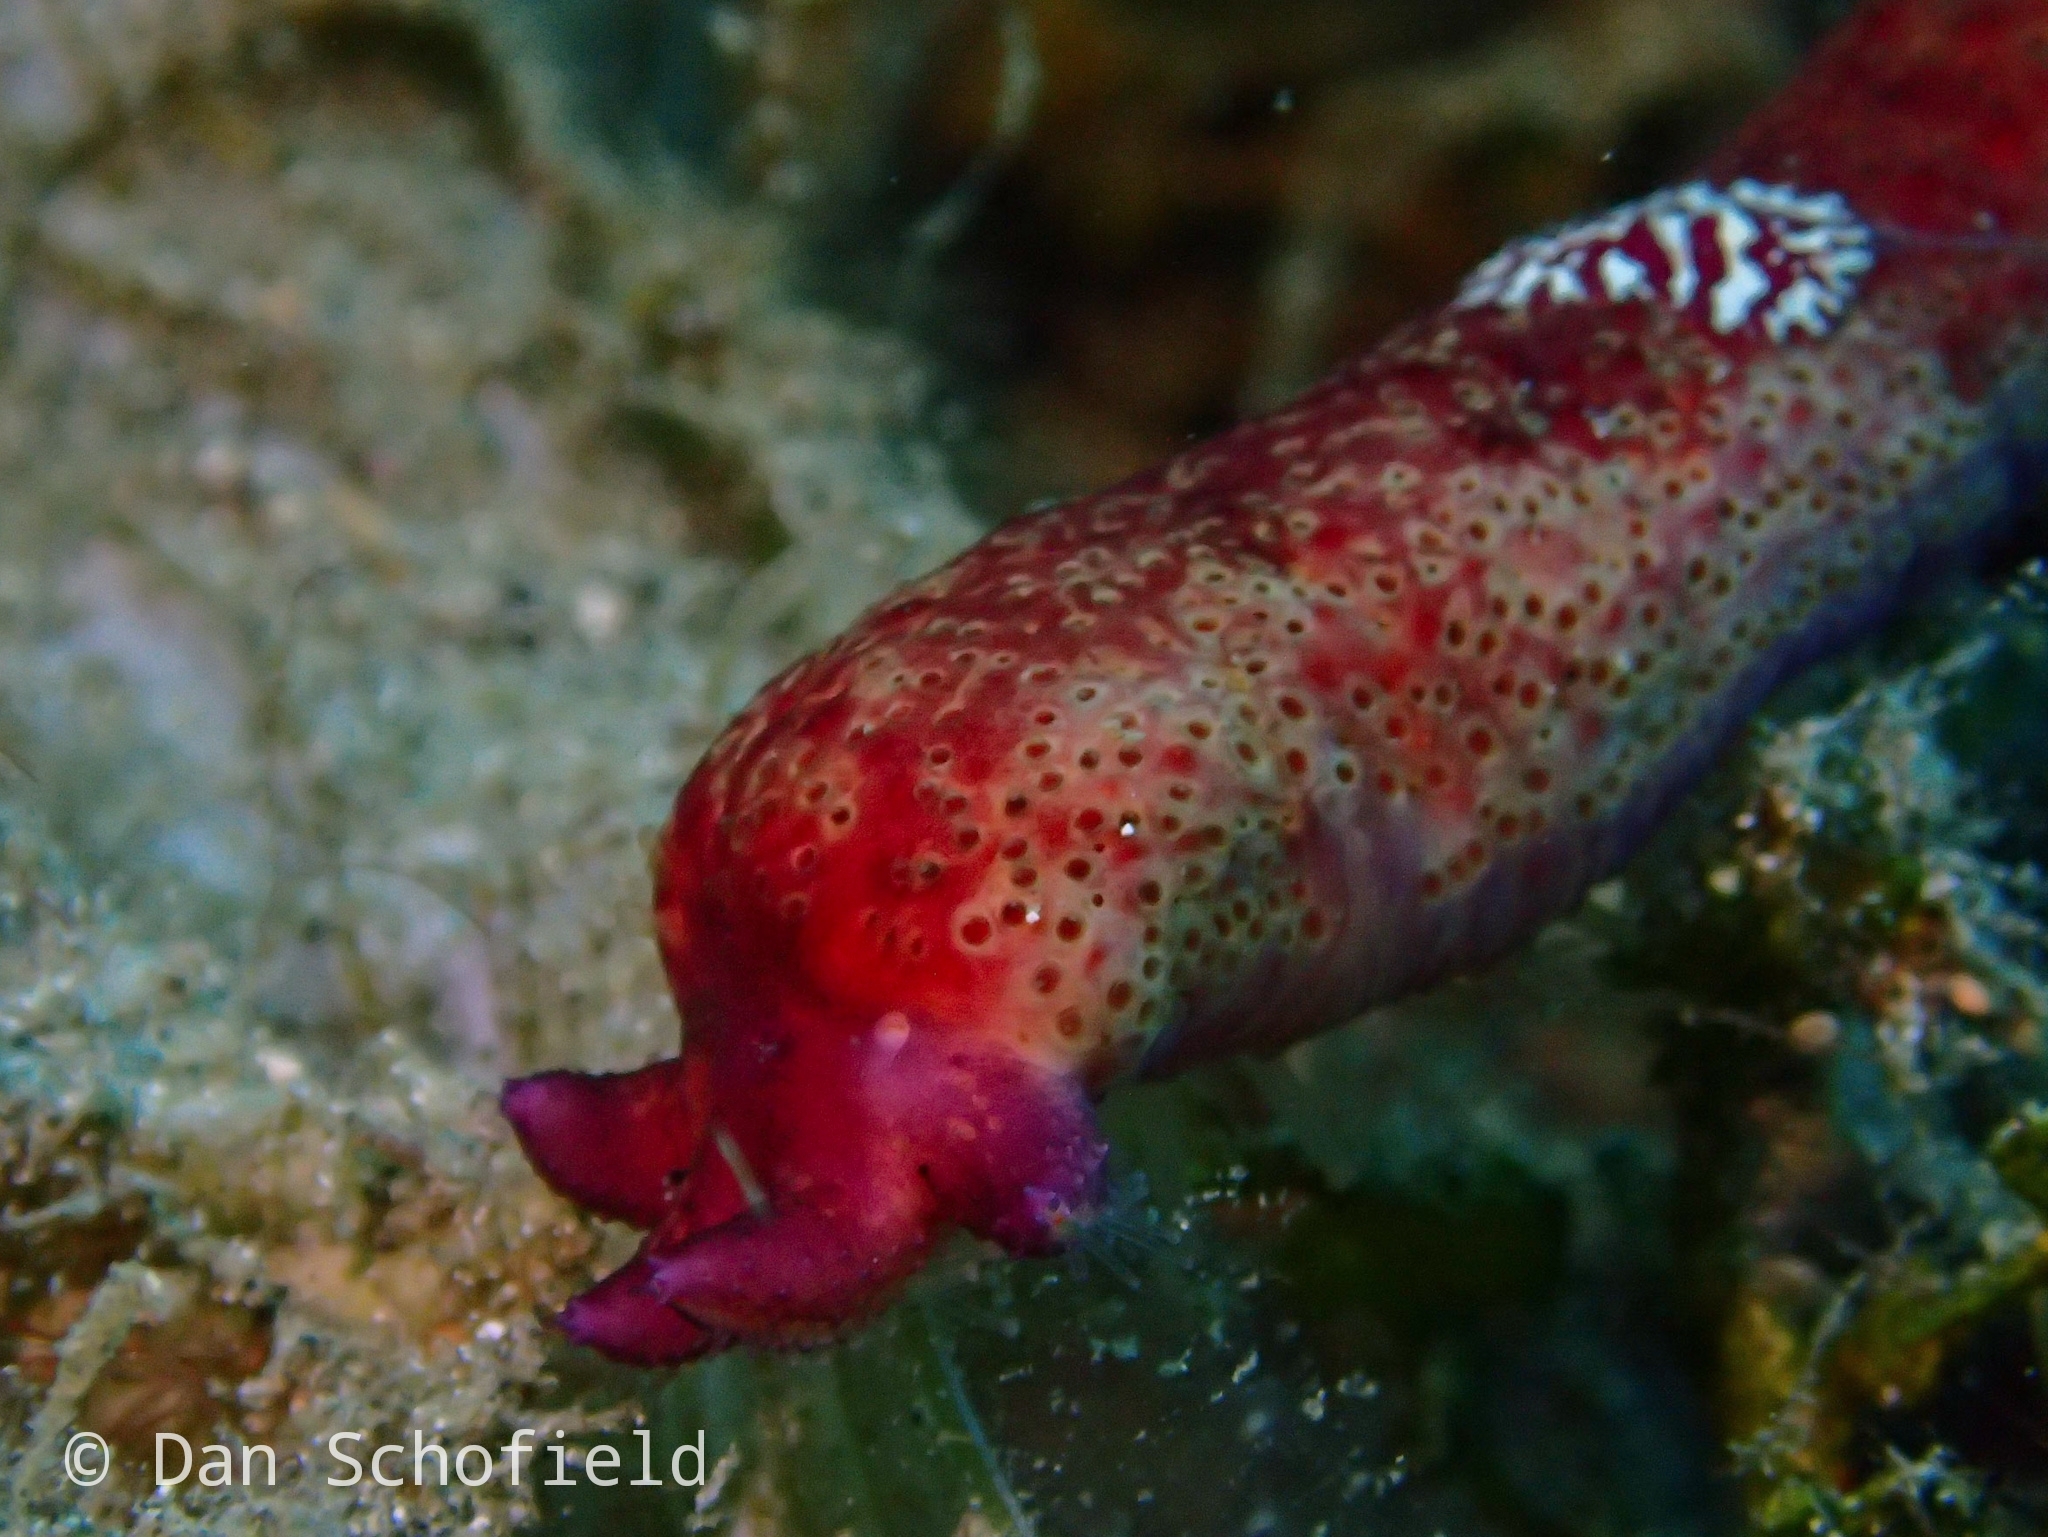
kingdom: Animalia
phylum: Echinodermata
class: Asteroidea
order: Spinulosida
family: Echinasteridae
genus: Echinaster
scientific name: Echinaster luzonicus
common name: Luzon seastar
